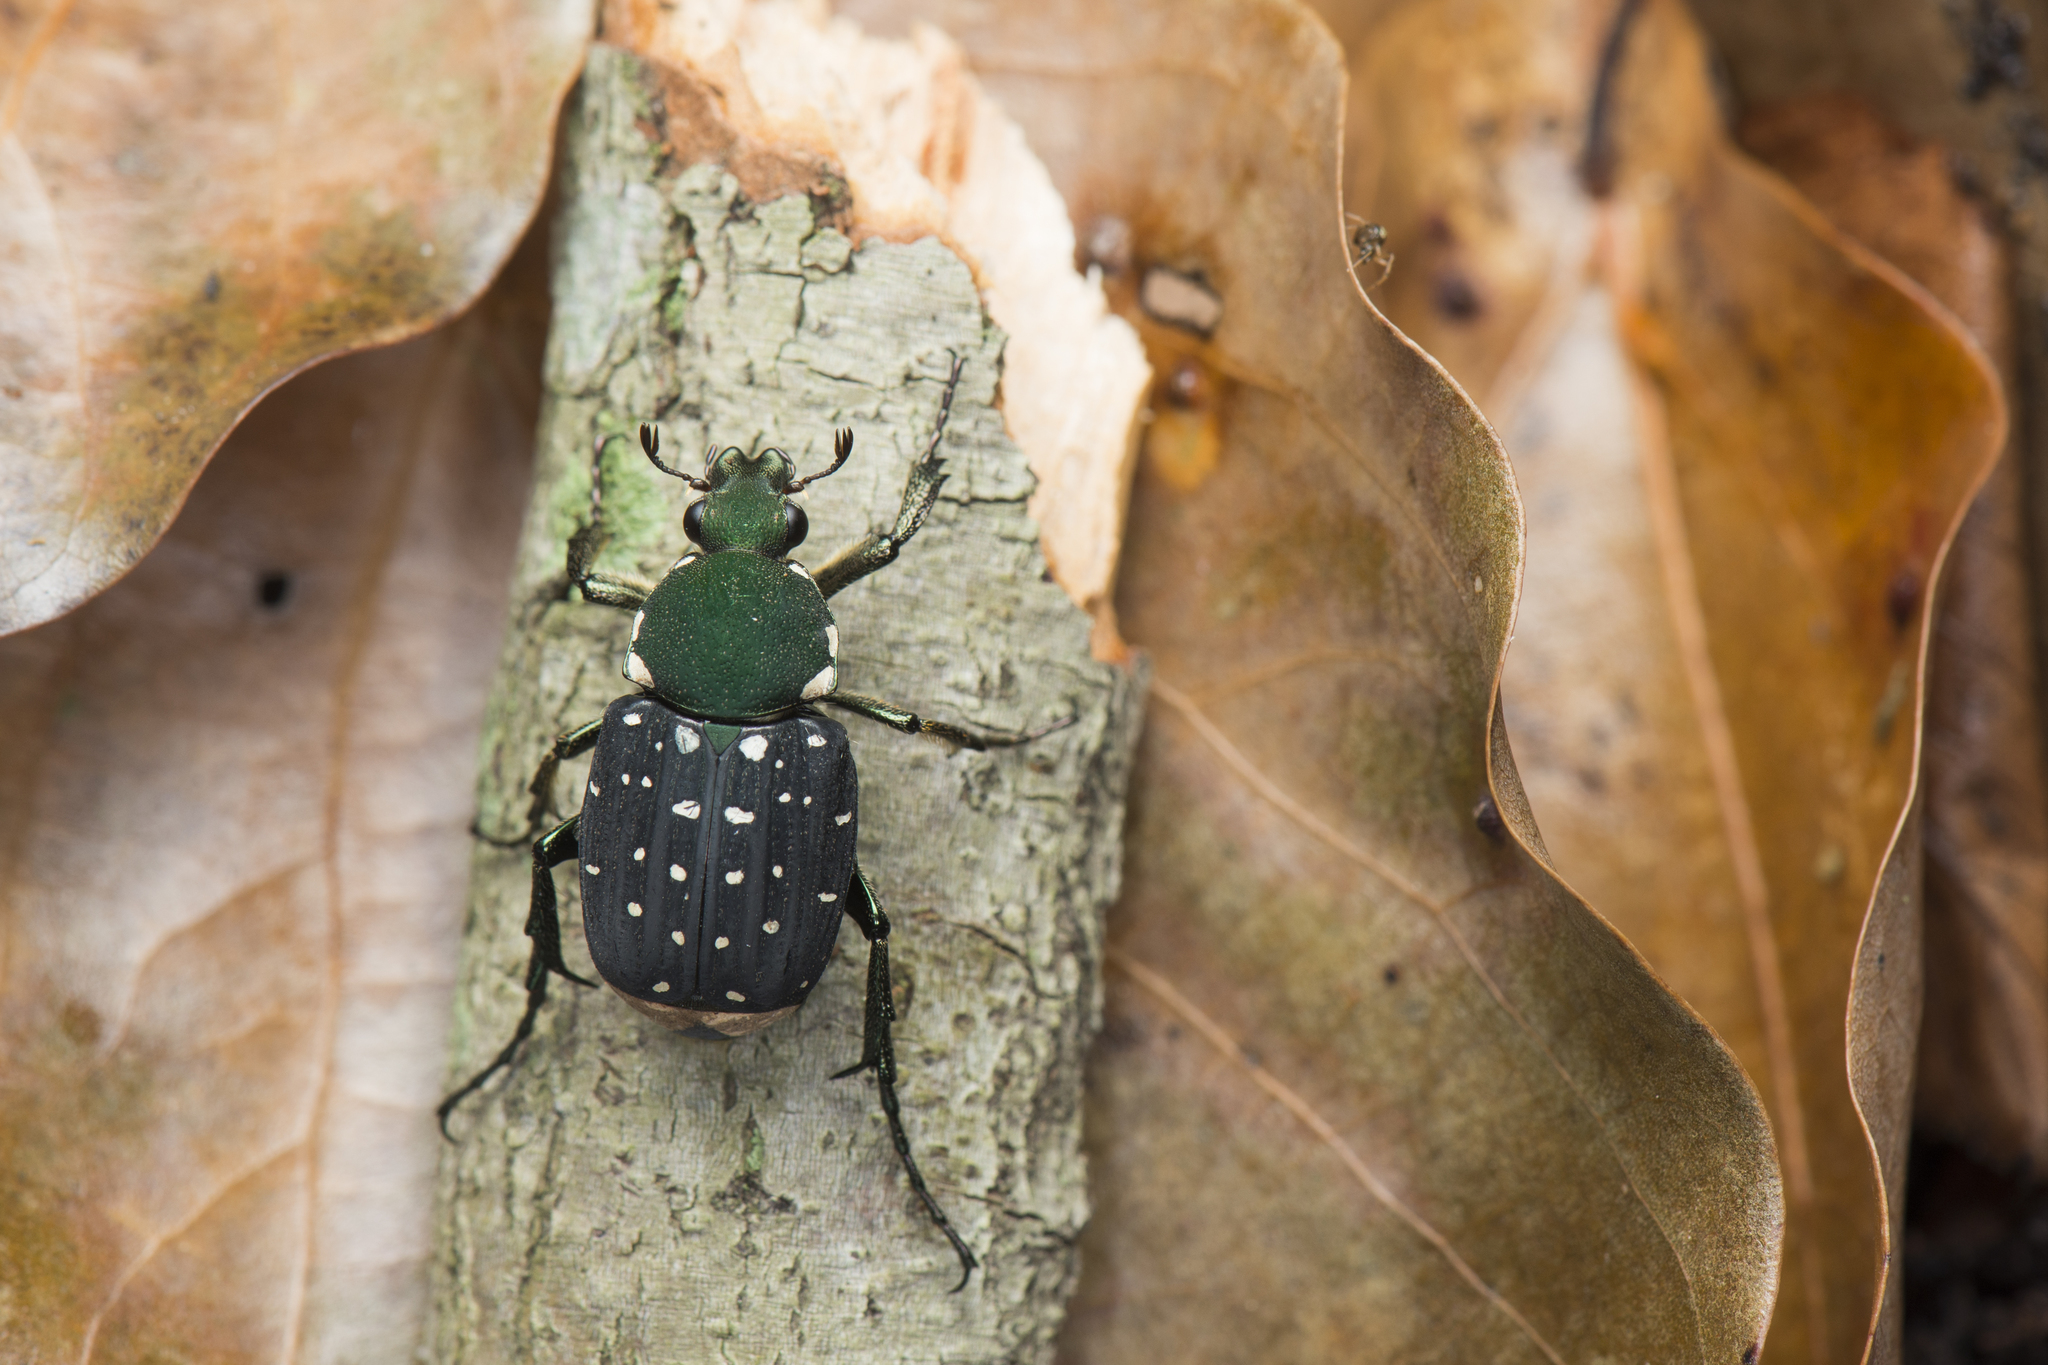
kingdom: Animalia
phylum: Arthropoda
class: Insecta
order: Coleoptera
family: Scarabaeidae
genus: Agnorimus
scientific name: Agnorimus pictus
